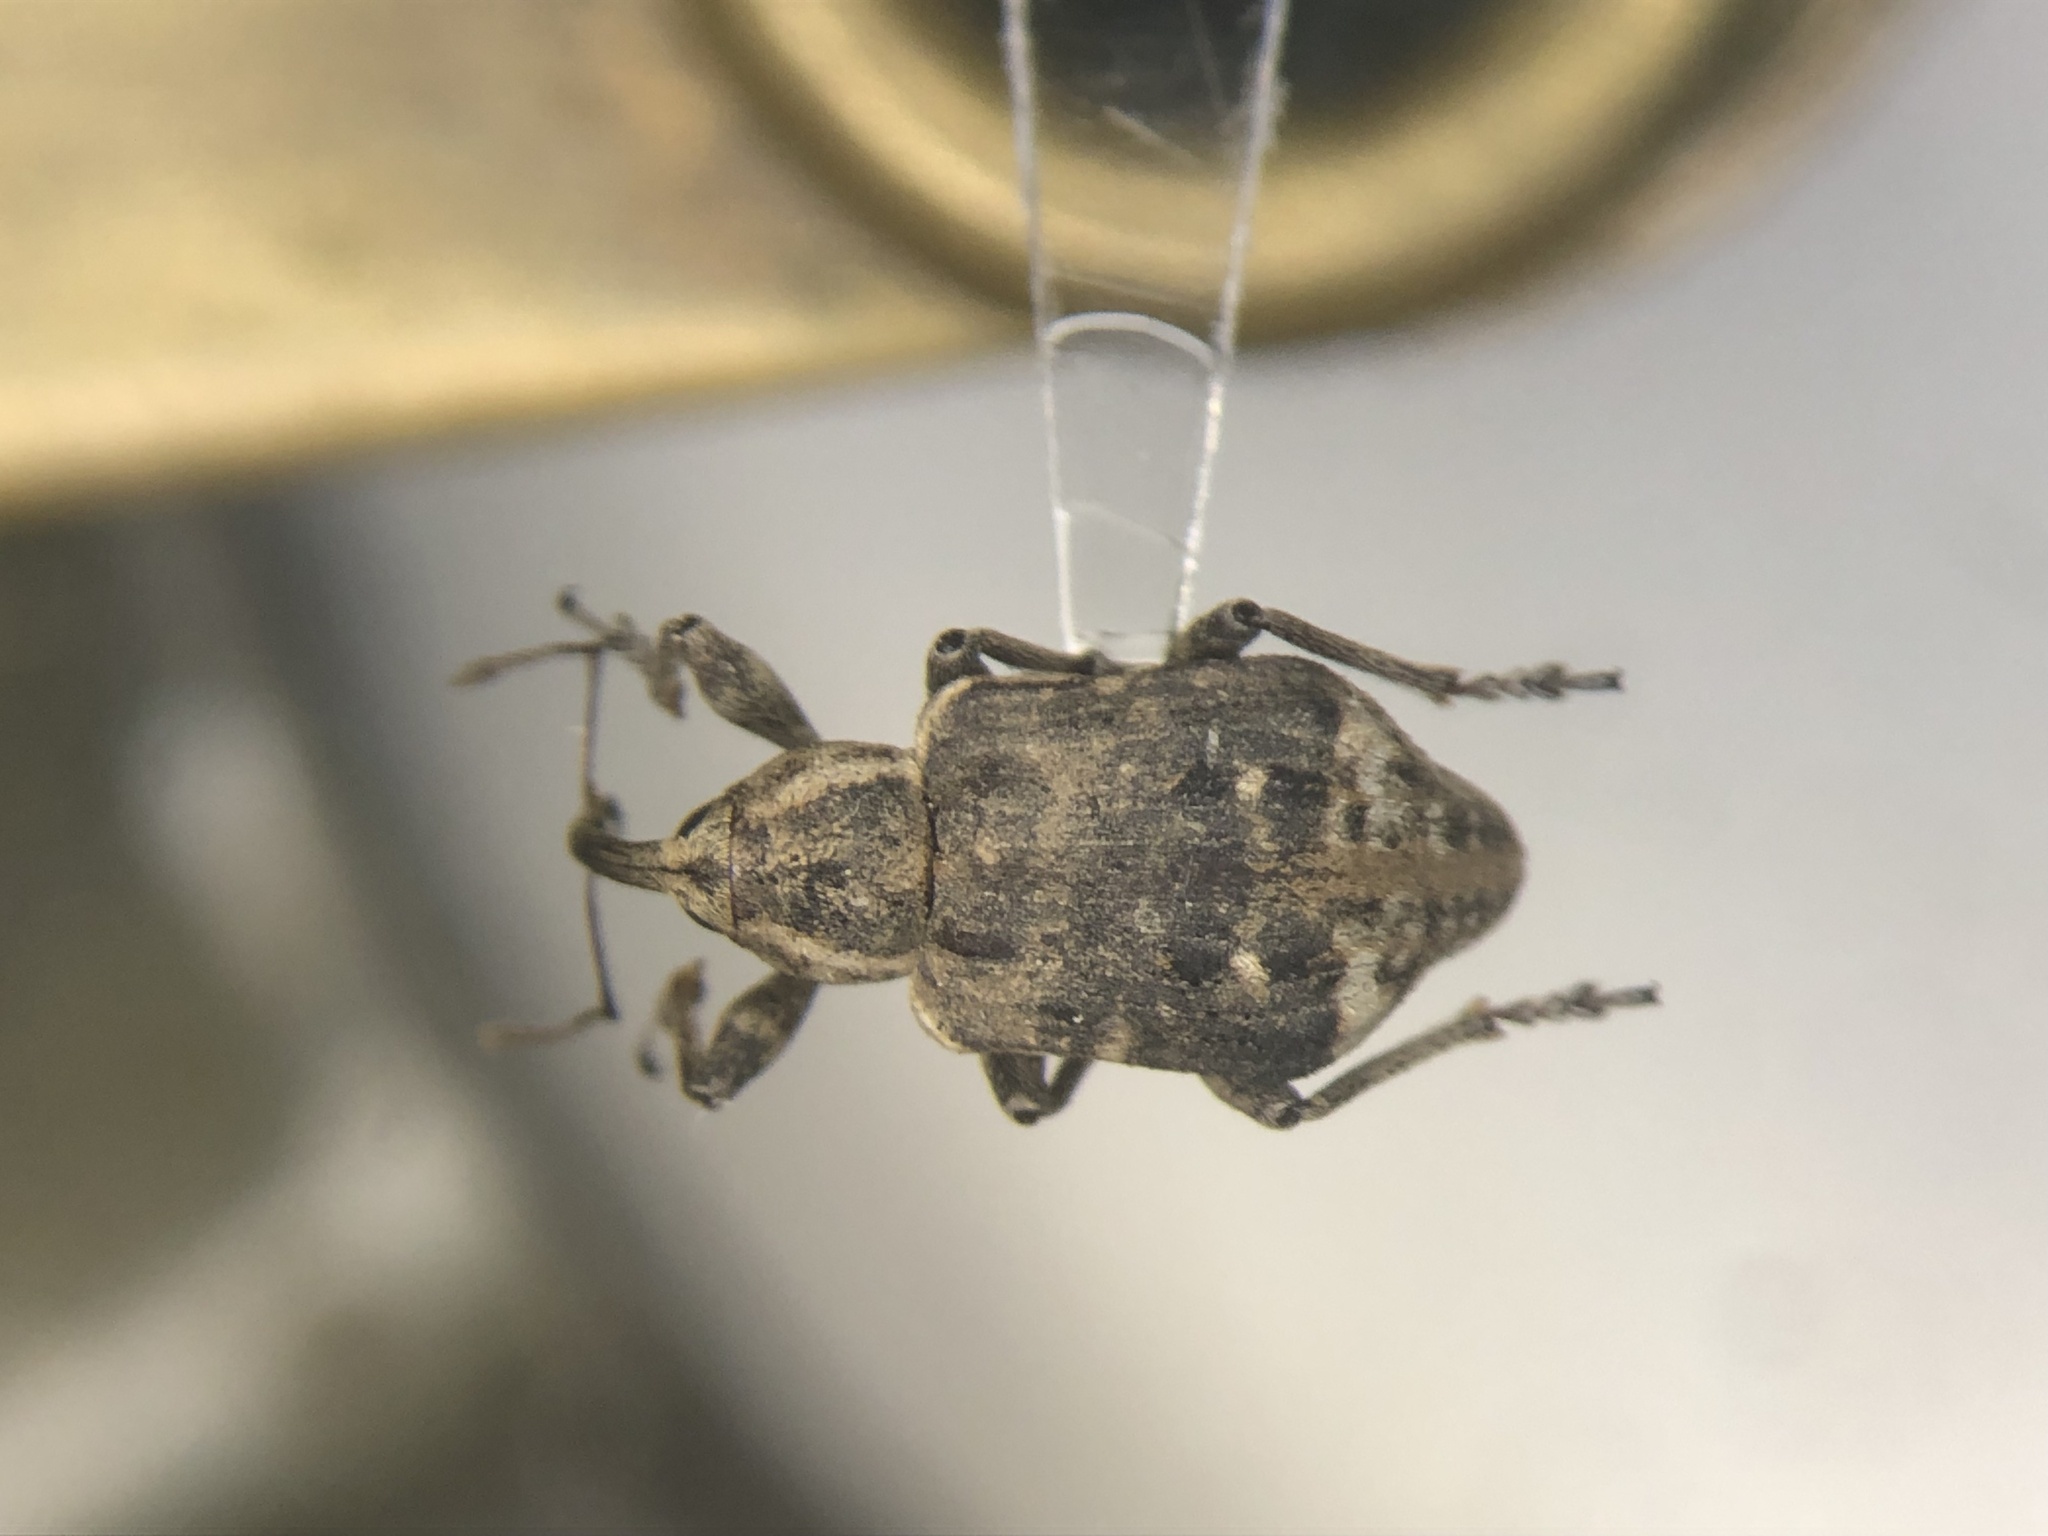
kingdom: Animalia
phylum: Arthropoda
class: Insecta
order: Coleoptera
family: Brachyceridae
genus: Grypus
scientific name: Grypus equiseti
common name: Horsetail weevil
